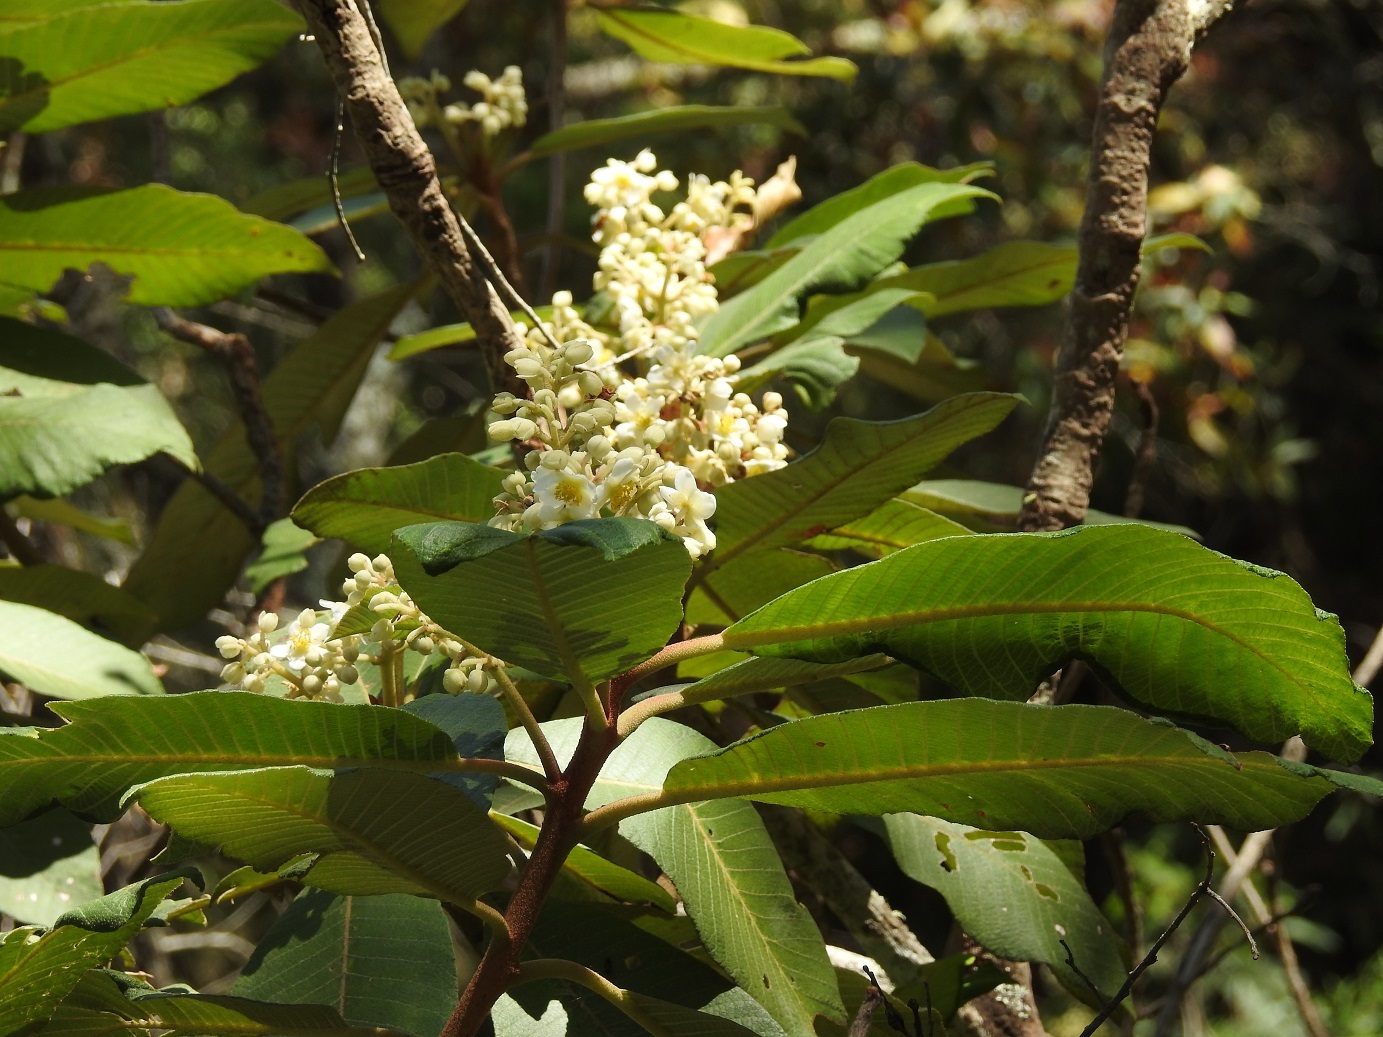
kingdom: Plantae
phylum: Tracheophyta
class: Magnoliopsida
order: Ericales
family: Actinidiaceae
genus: Saurauia
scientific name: Saurauia scabrida
